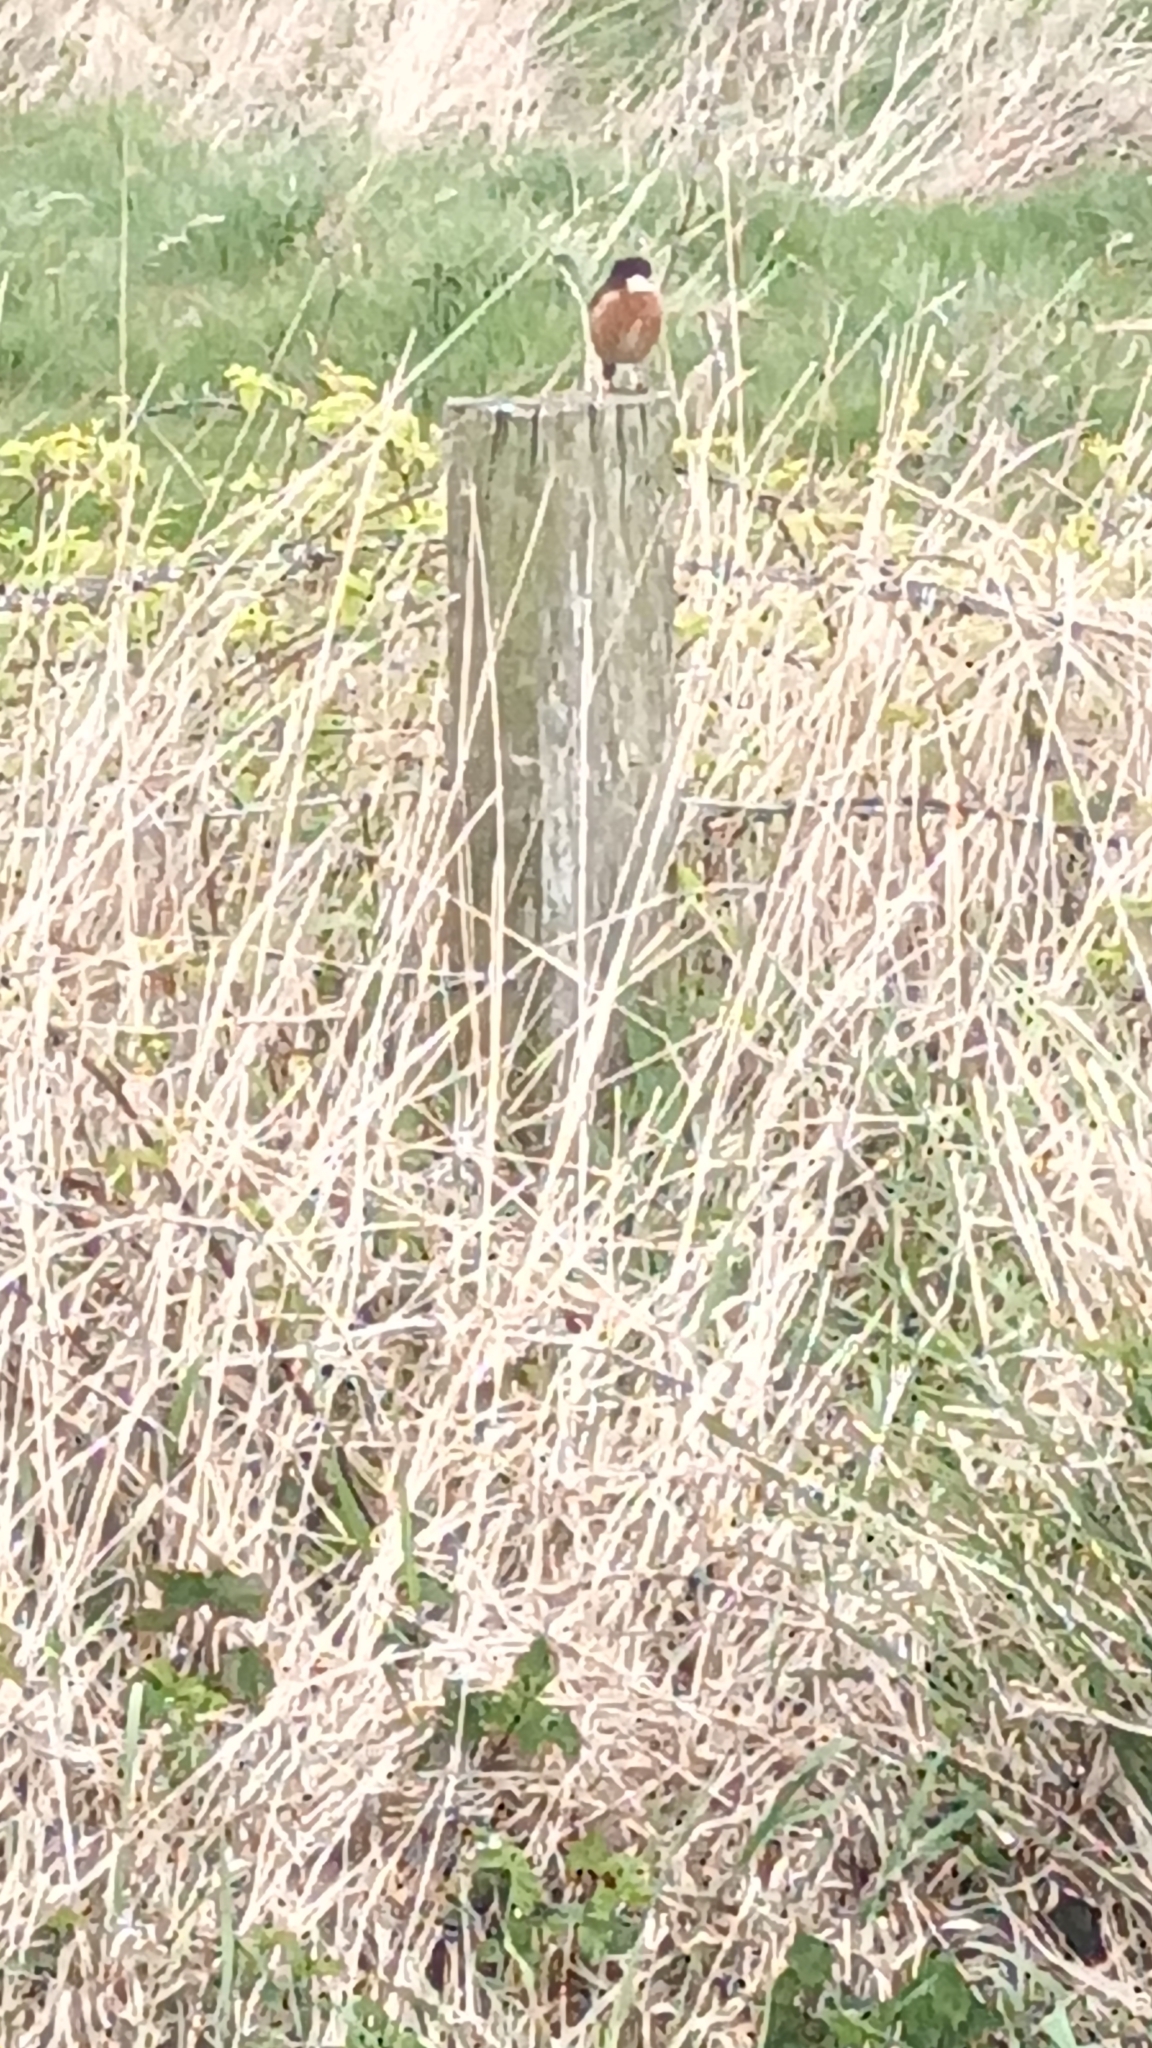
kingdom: Animalia
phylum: Chordata
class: Aves
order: Passeriformes
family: Muscicapidae
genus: Saxicola
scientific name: Saxicola rubicola
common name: European stonechat
